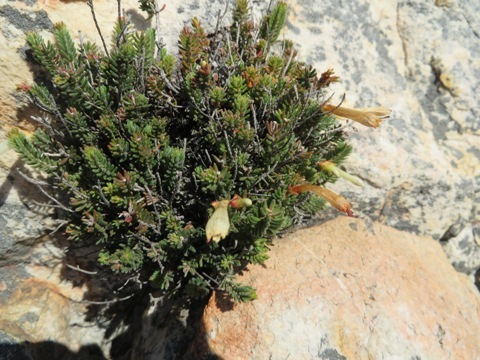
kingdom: Plantae
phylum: Tracheophyta
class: Magnoliopsida
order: Ericales
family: Ericaceae
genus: Erica
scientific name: Erica amidae
